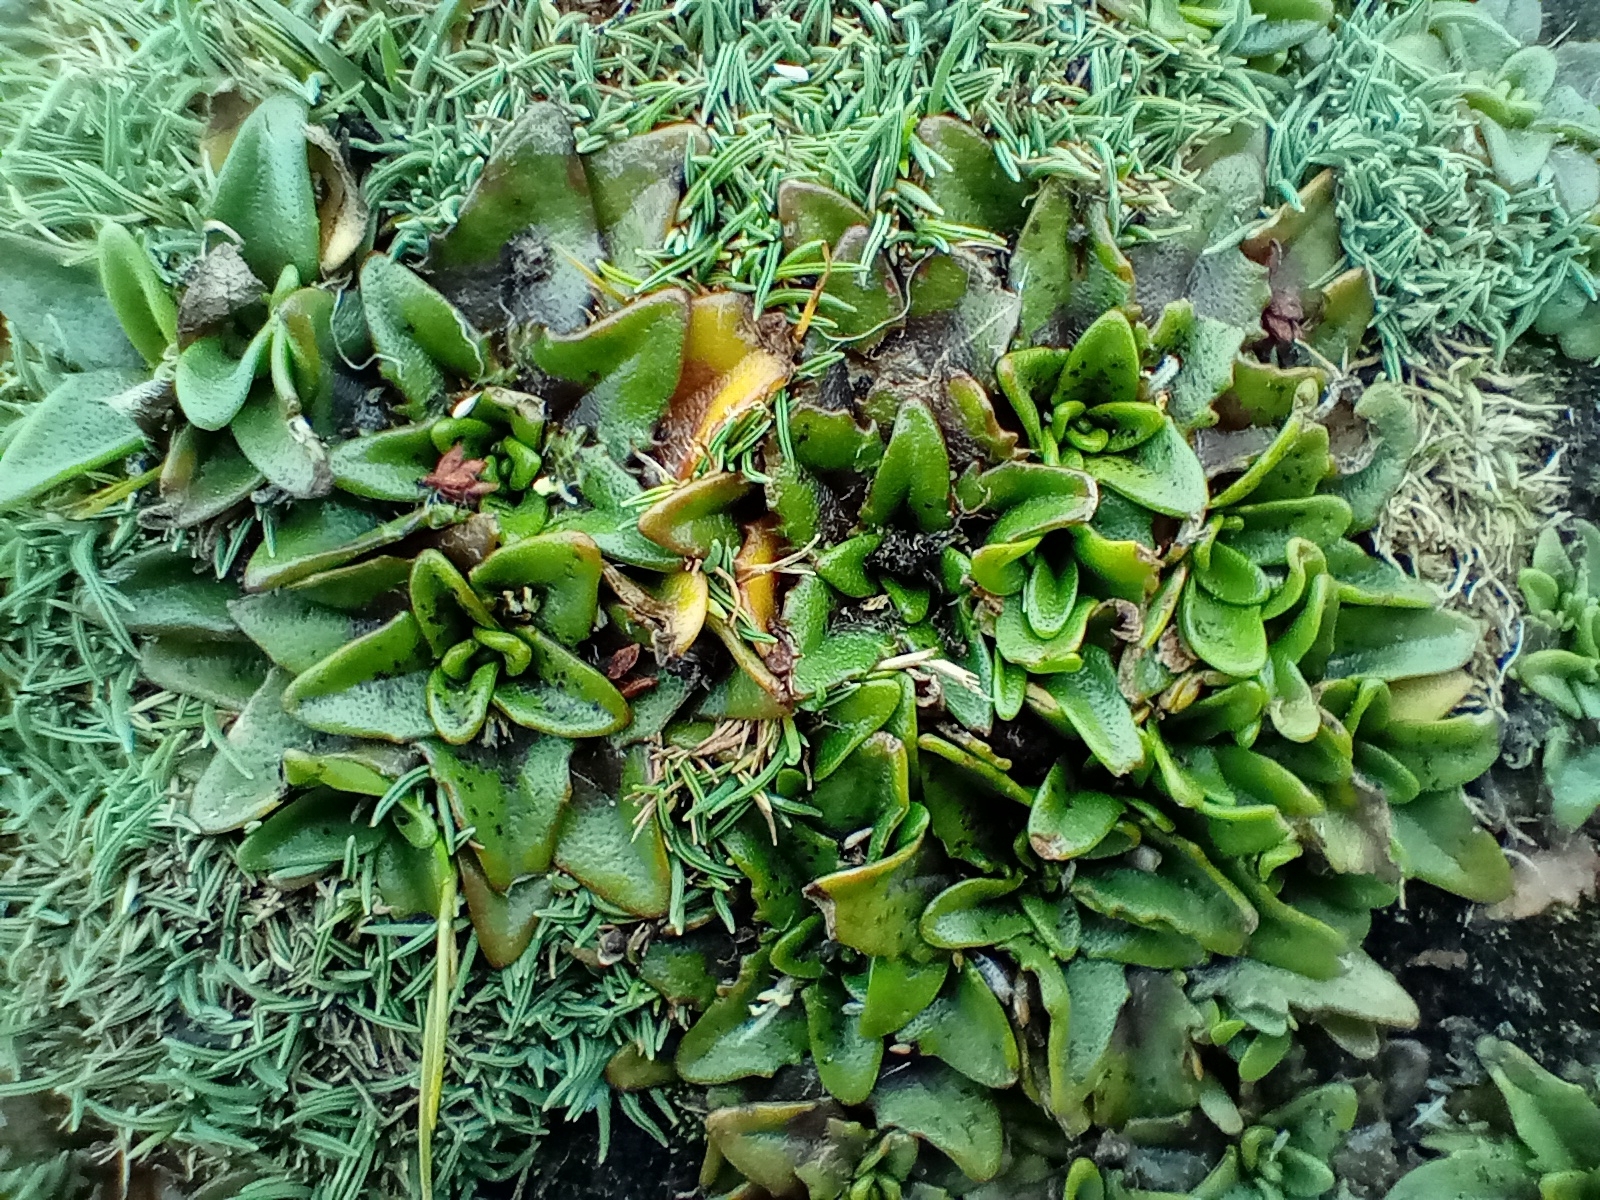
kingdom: Plantae
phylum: Tracheophyta
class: Magnoliopsida
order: Lamiales
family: Plantaginaceae
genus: Plantago
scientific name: Plantago triandra
